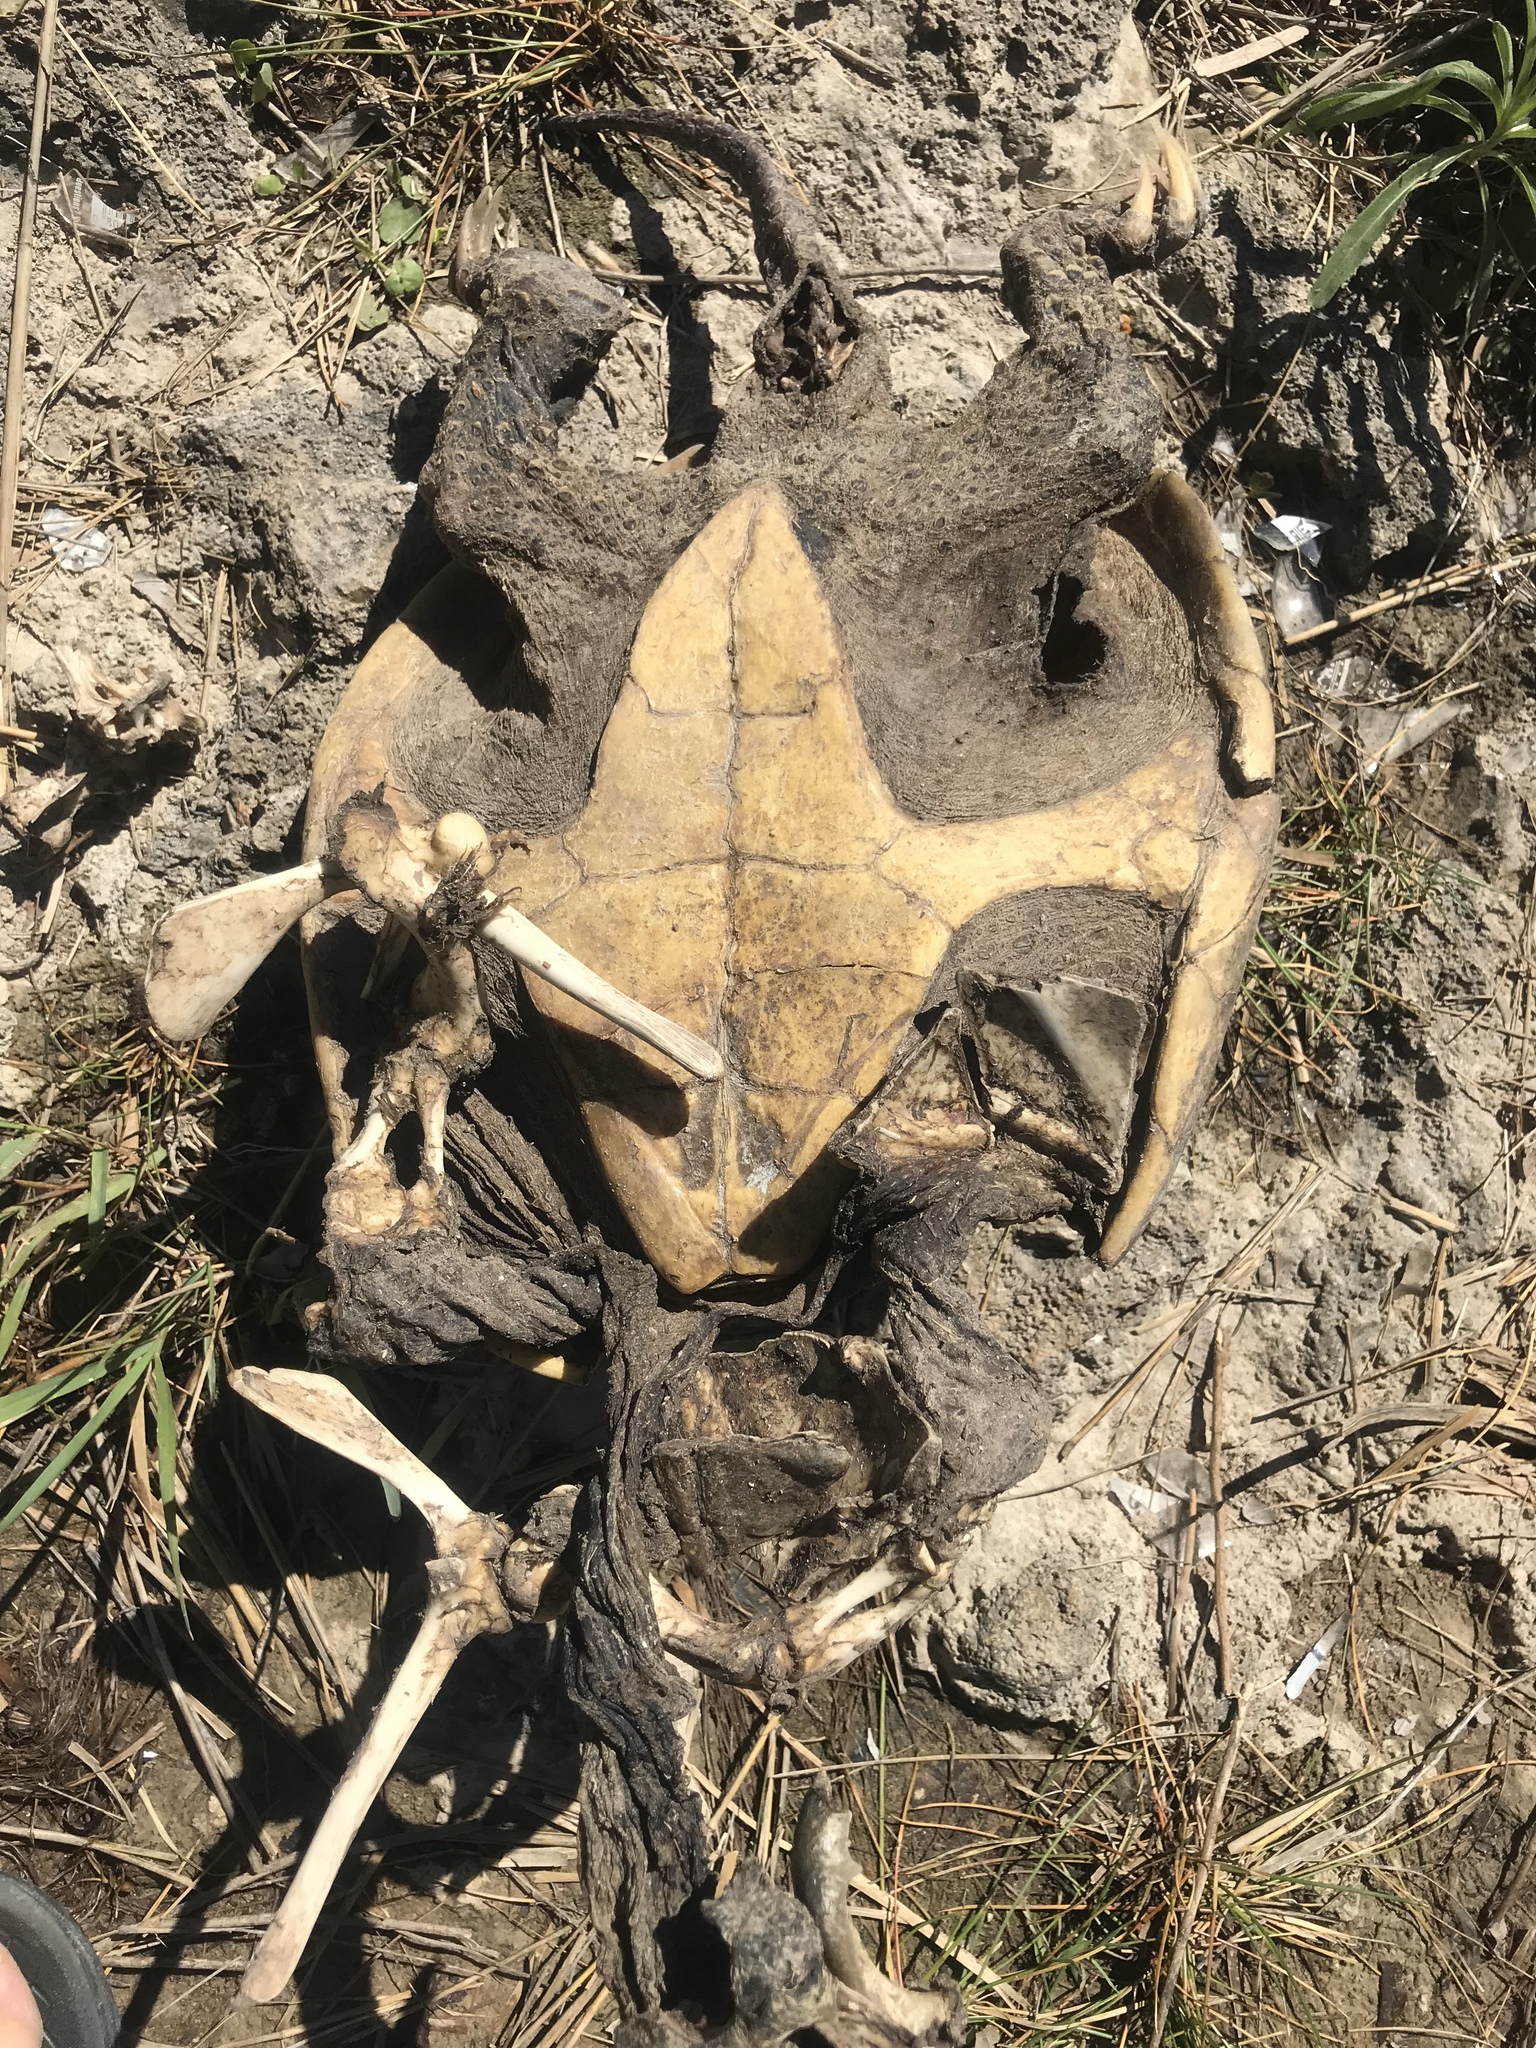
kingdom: Animalia
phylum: Chordata
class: Testudines
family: Chelydridae
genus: Chelydra
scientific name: Chelydra serpentina
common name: Common snapping turtle
